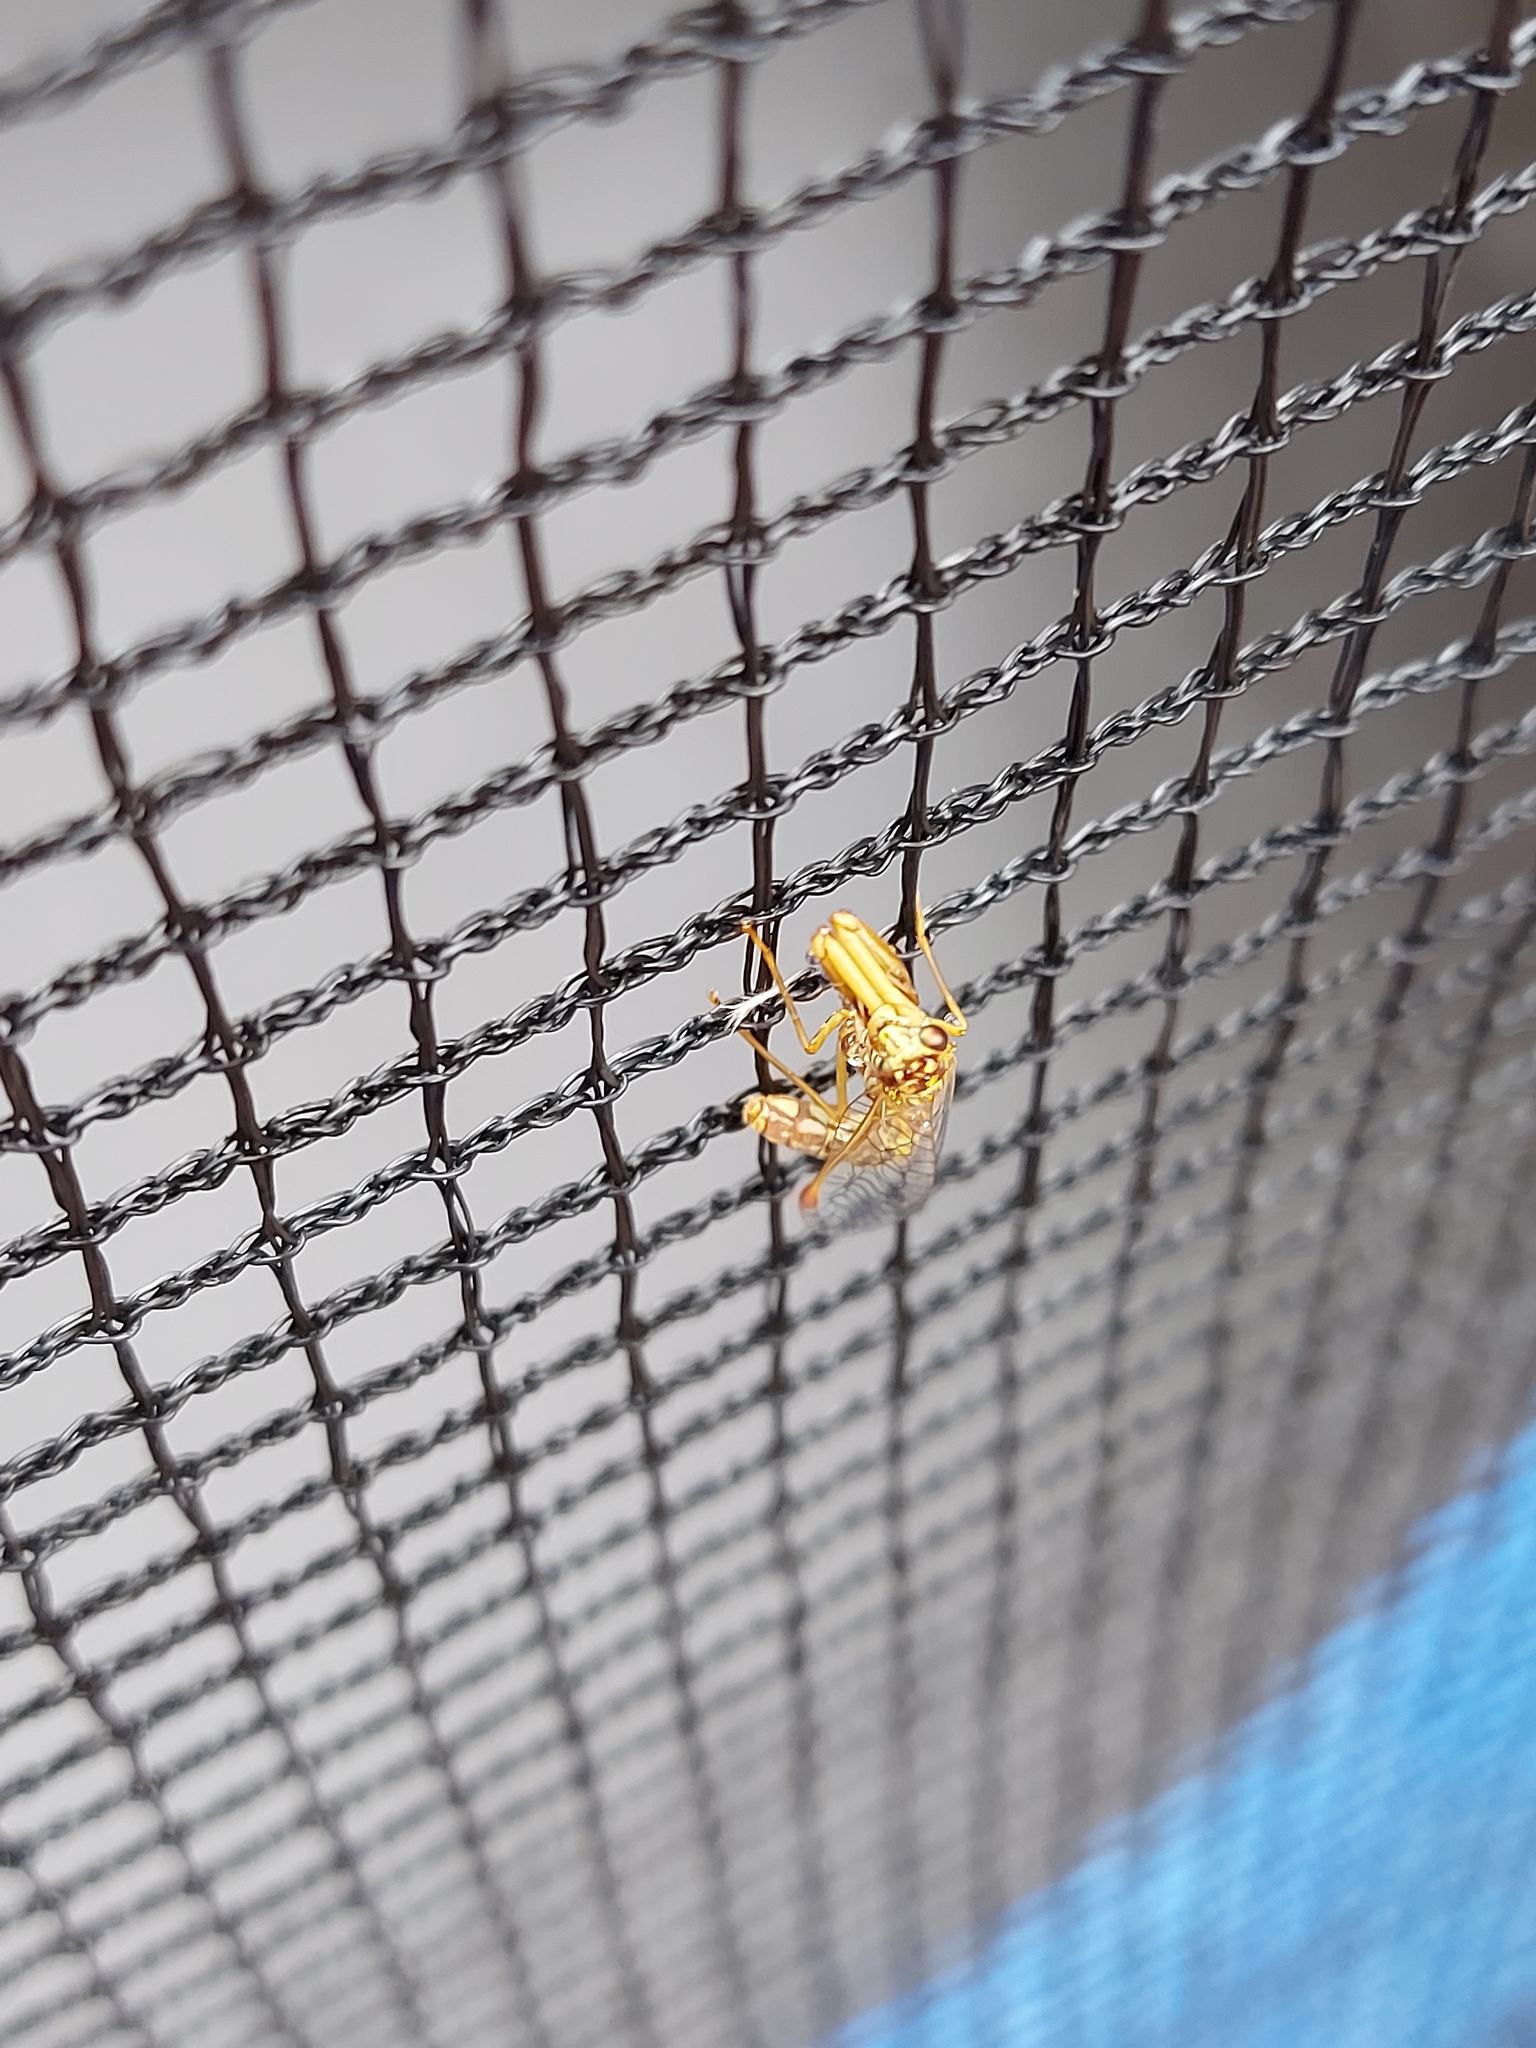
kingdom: Animalia
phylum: Arthropoda
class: Insecta
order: Neuroptera
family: Mantispidae
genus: Mantispa
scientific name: Mantispa styriaca
